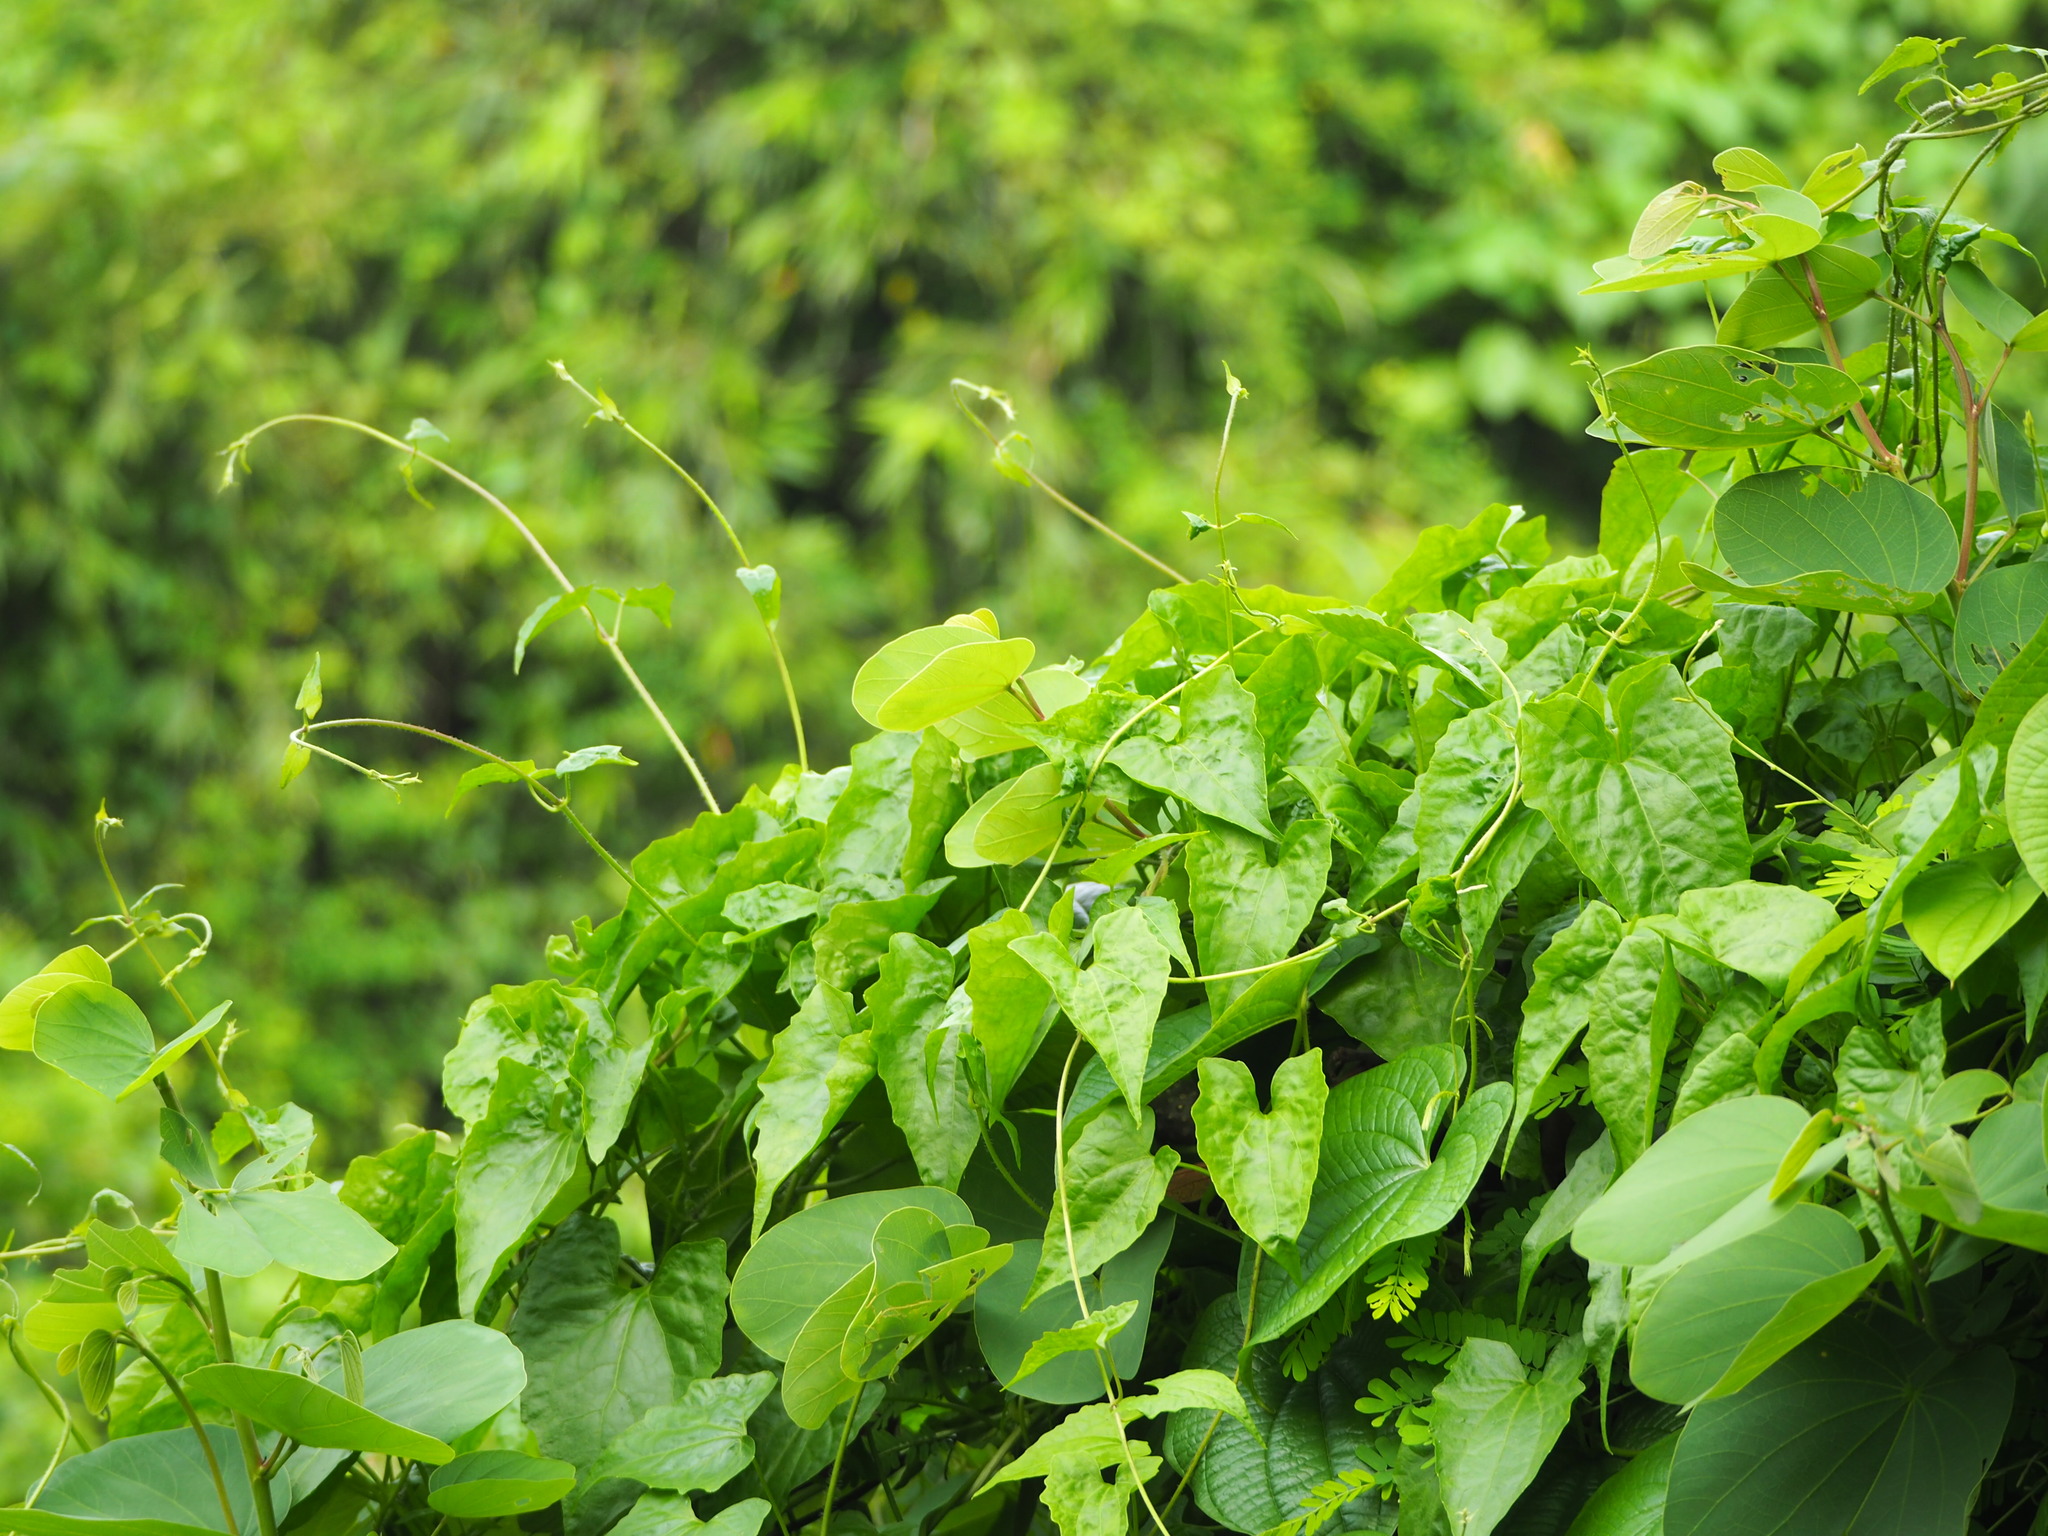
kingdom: Plantae
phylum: Tracheophyta
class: Magnoliopsida
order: Asterales
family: Asteraceae
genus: Mikania
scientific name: Mikania micrantha
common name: Mile-a-minute
